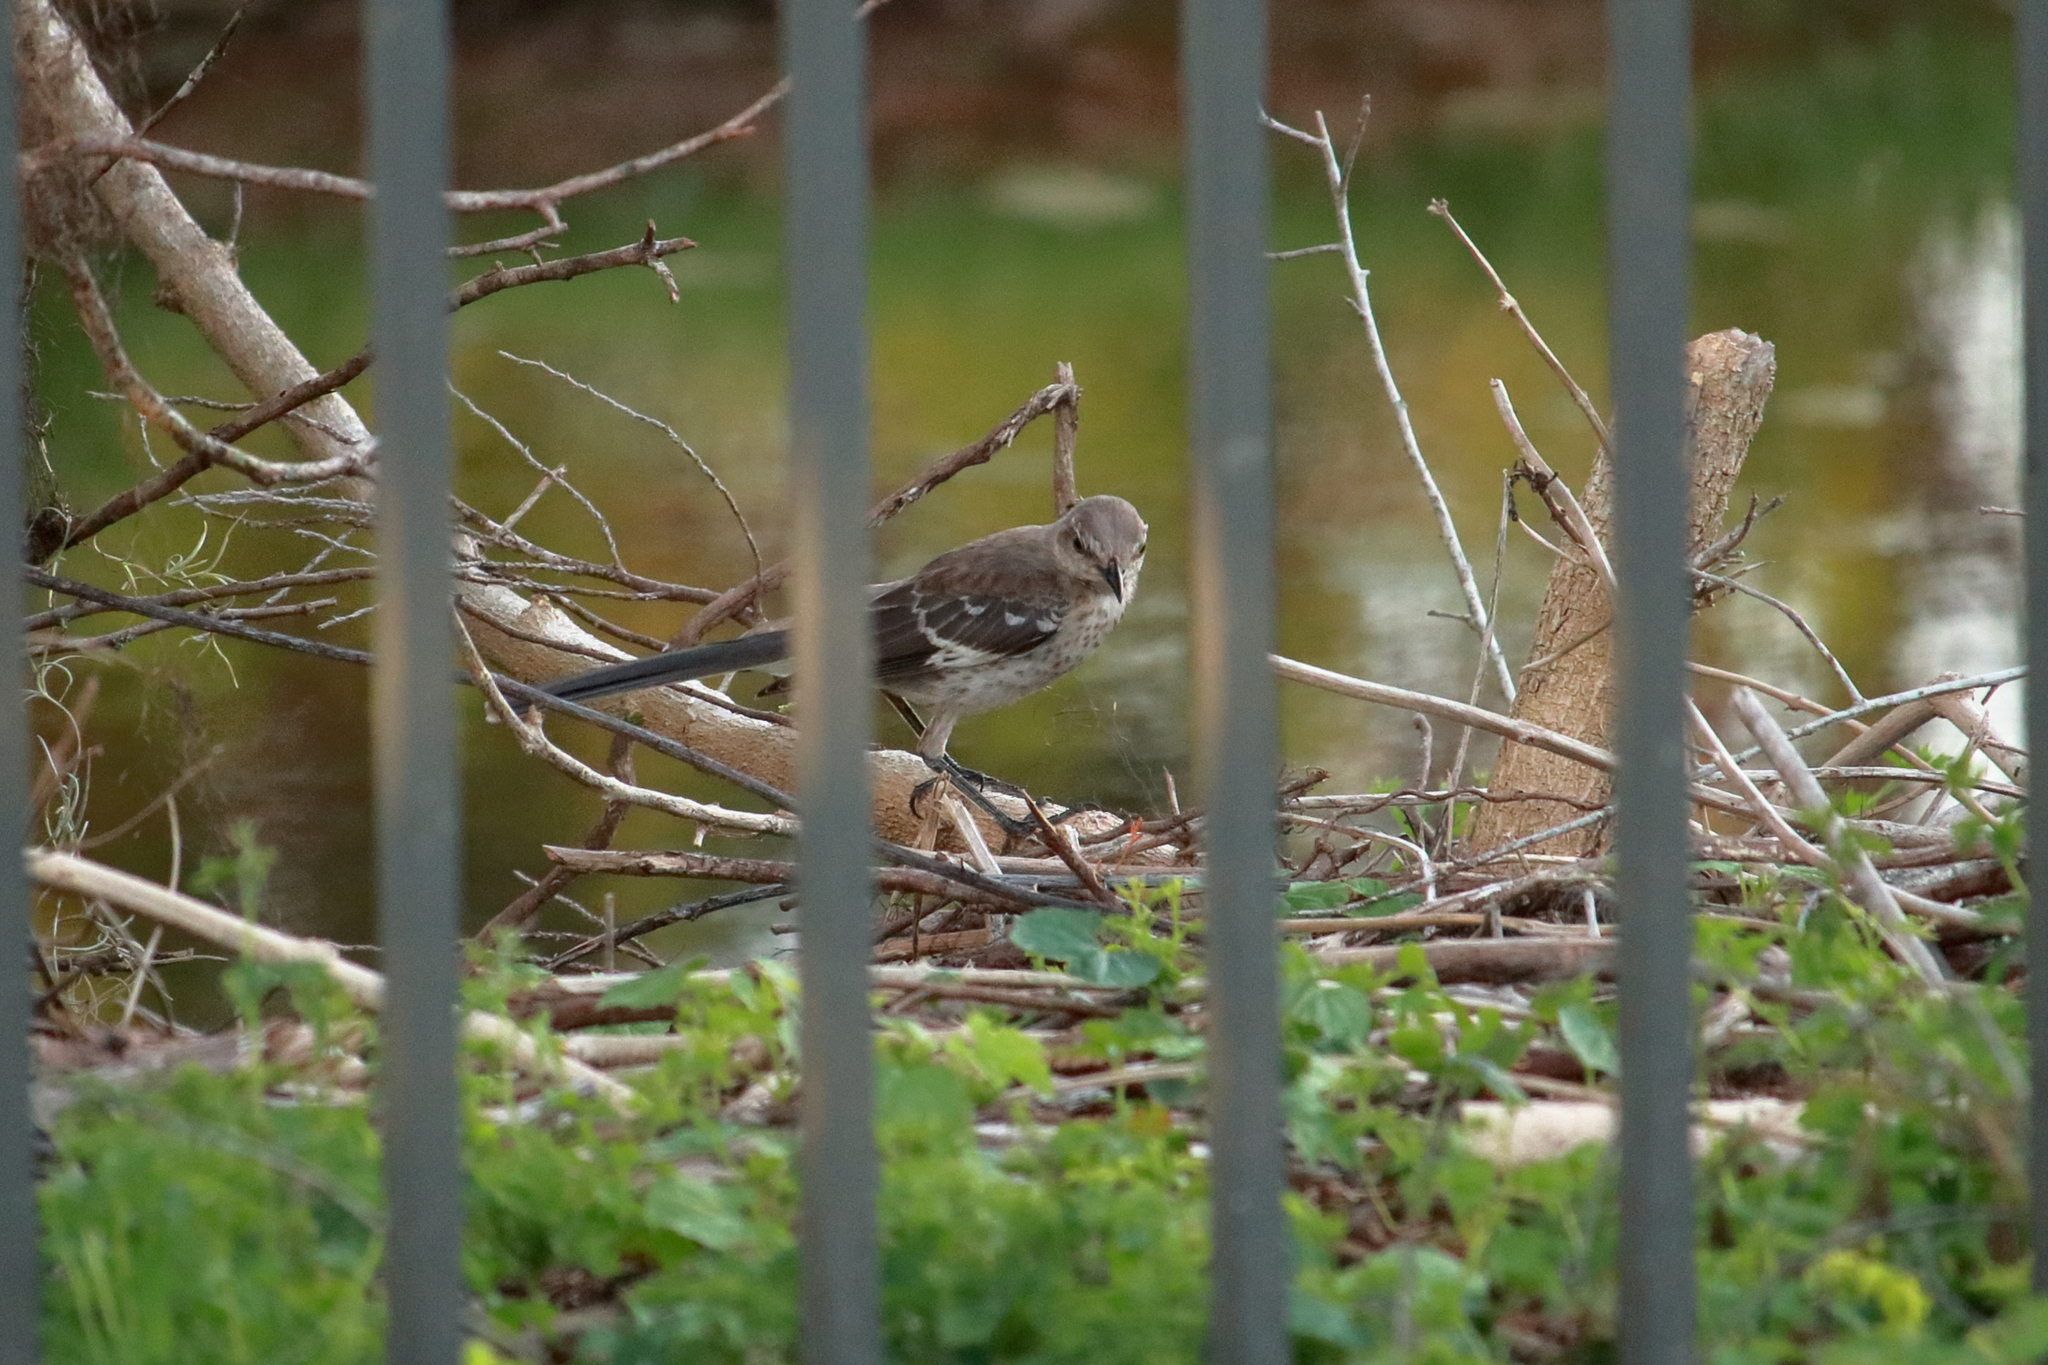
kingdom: Animalia
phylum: Chordata
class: Aves
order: Passeriformes
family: Mimidae
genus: Mimus
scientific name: Mimus polyglottos
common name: Northern mockingbird
